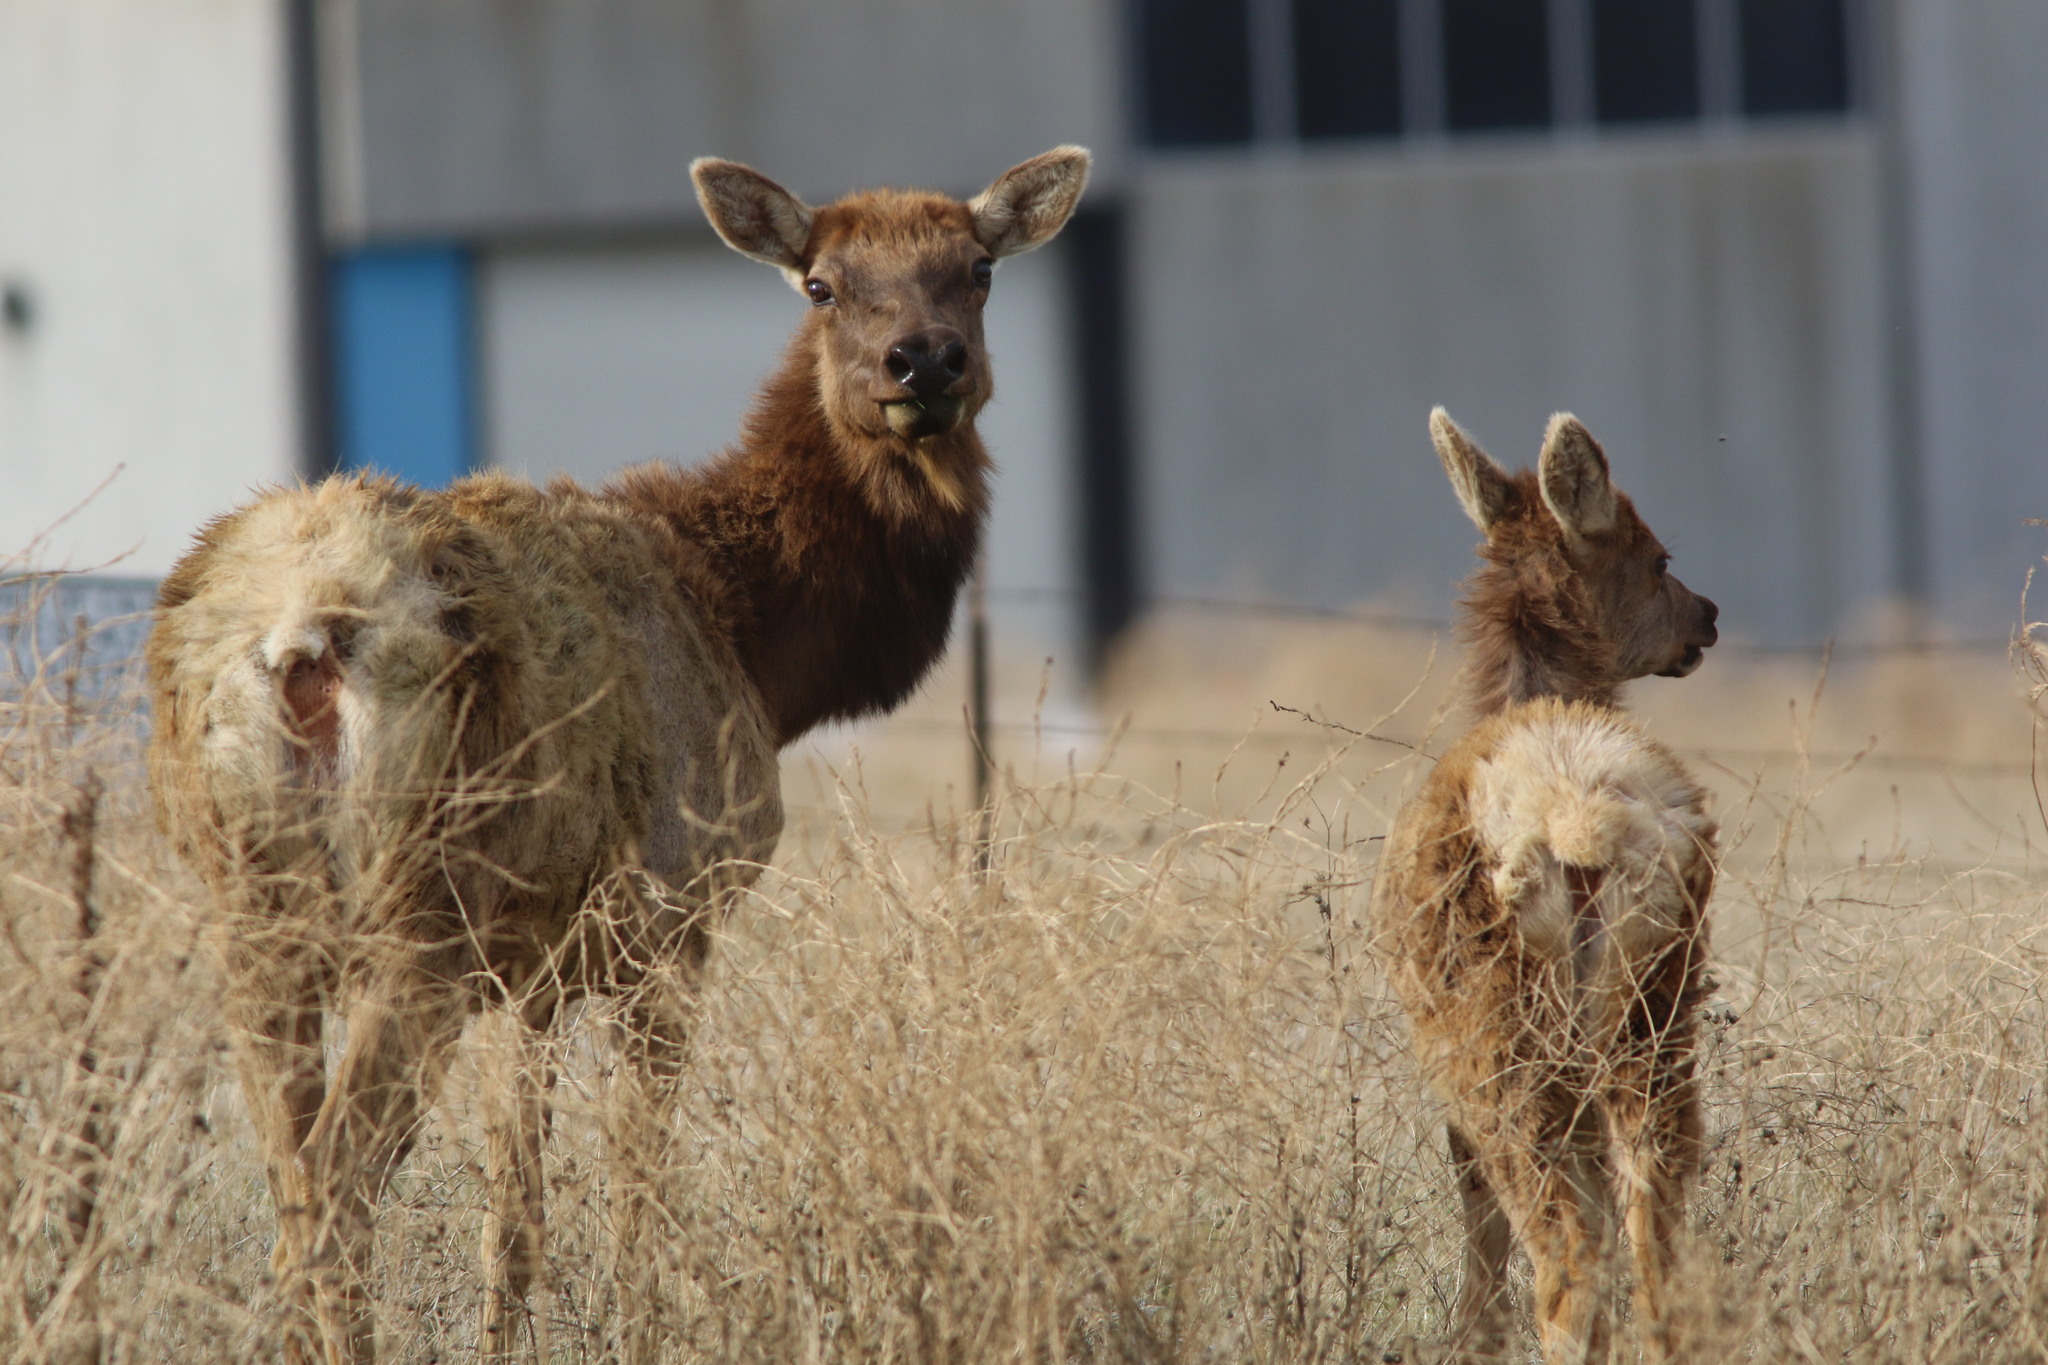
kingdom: Animalia
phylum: Chordata
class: Mammalia
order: Artiodactyla
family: Cervidae
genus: Cervus
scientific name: Cervus elaphus
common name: Red deer
